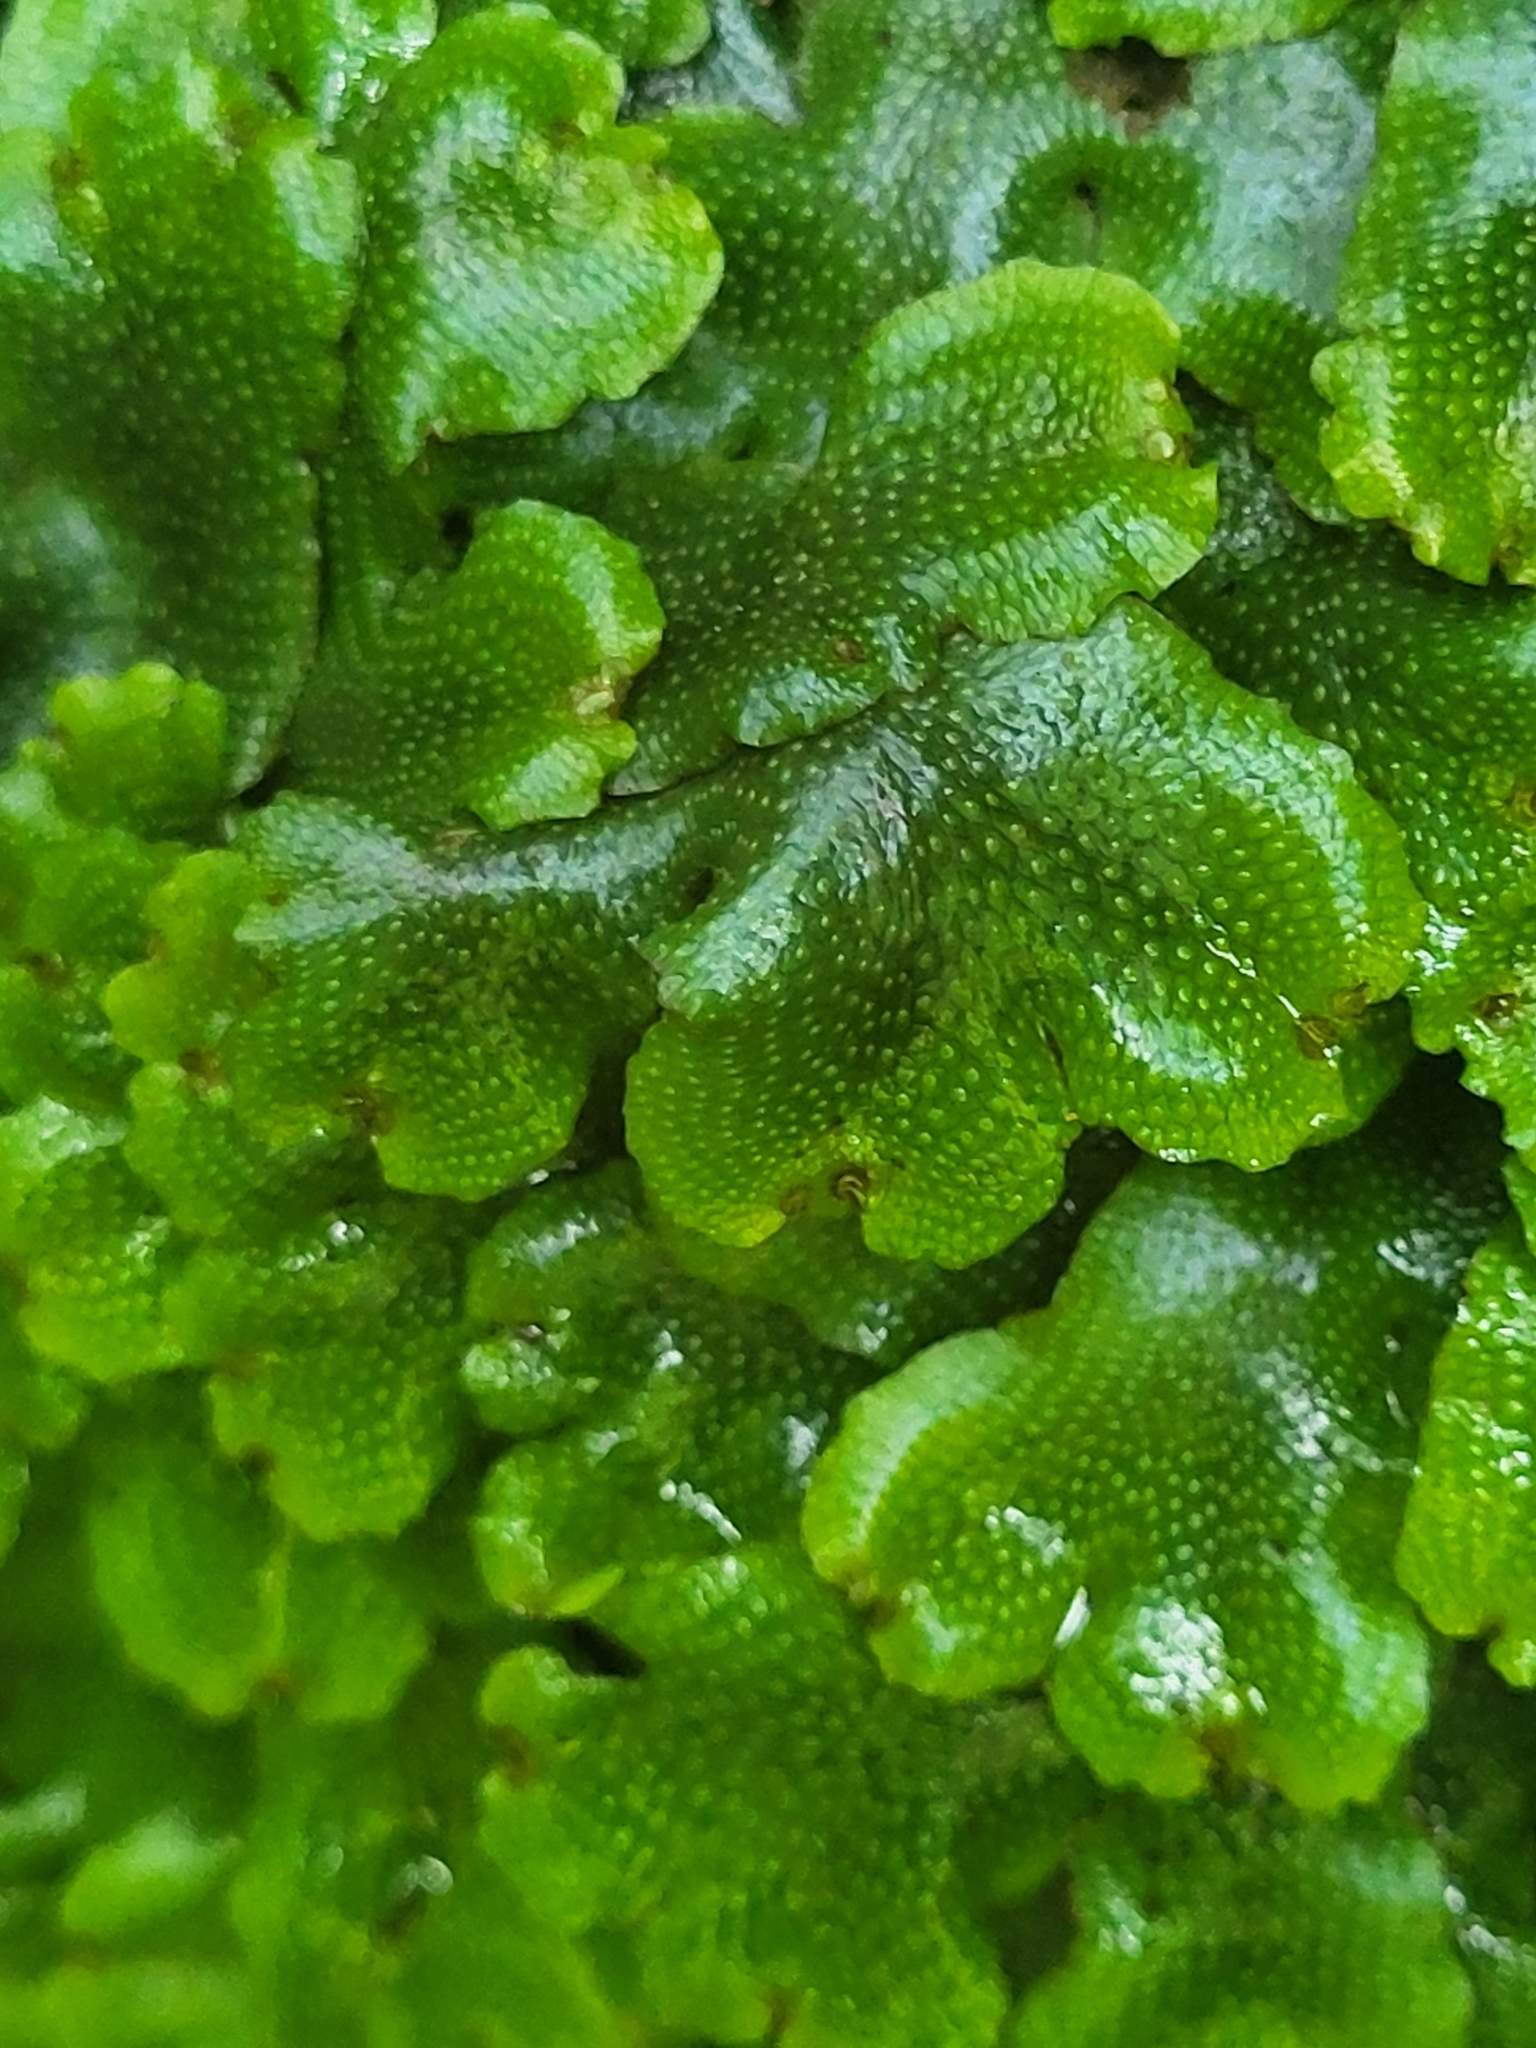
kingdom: Plantae
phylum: Marchantiophyta
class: Marchantiopsida
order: Marchantiales
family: Conocephalaceae
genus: Conocephalum
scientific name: Conocephalum conicum
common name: Great scented liverwort
